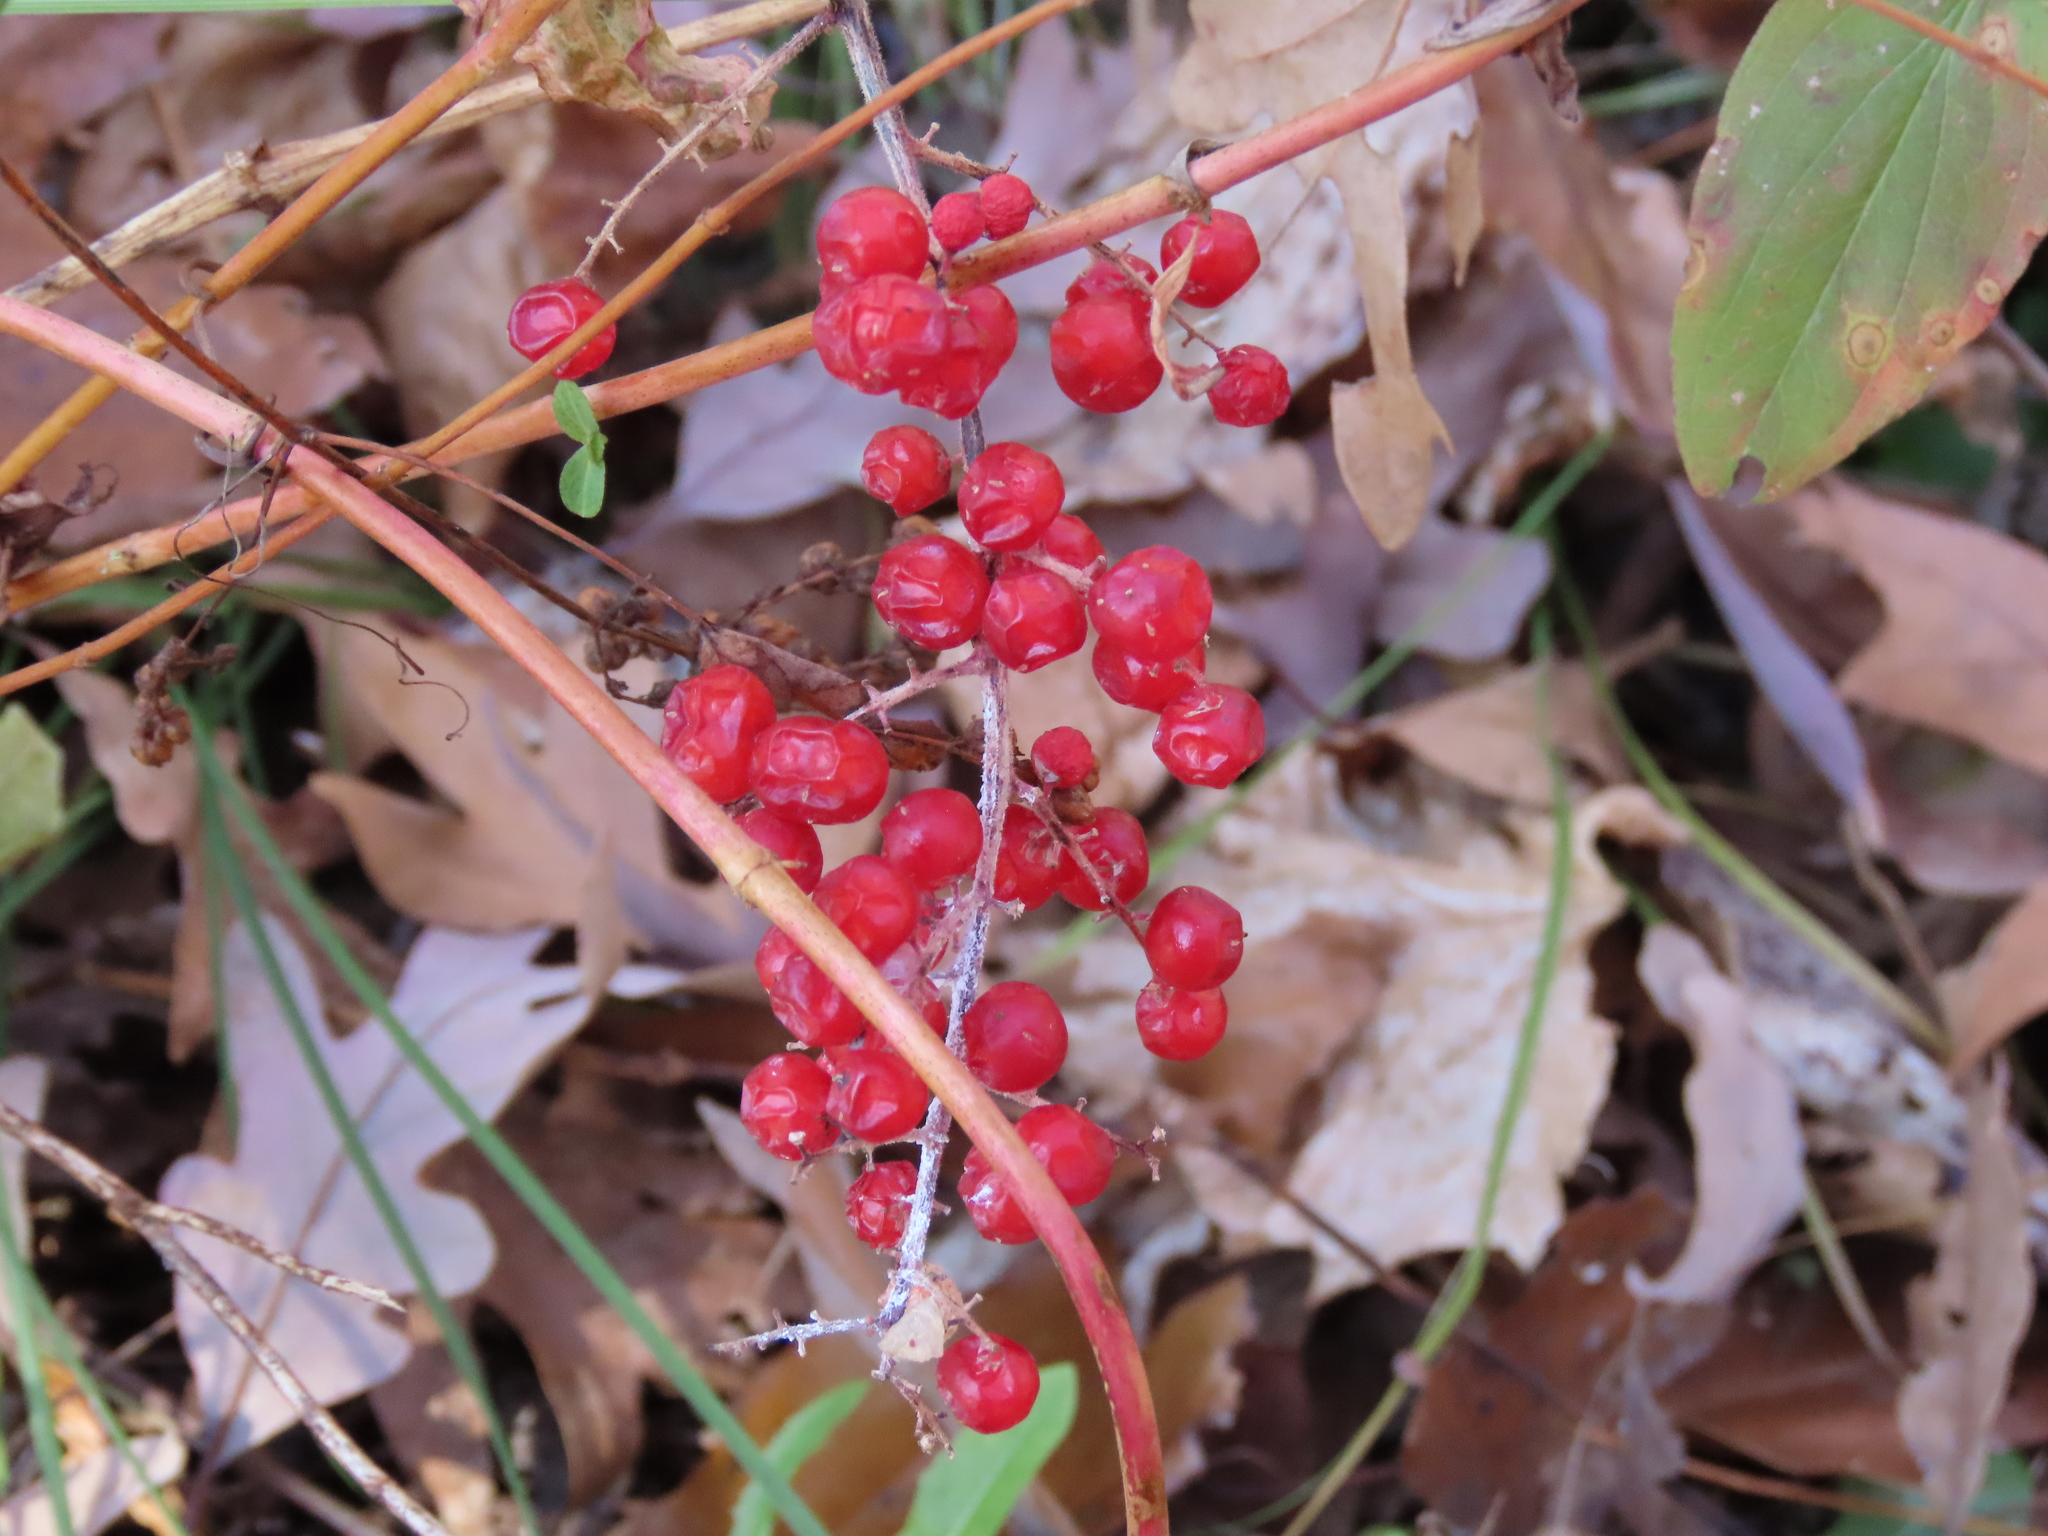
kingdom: Plantae
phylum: Tracheophyta
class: Liliopsida
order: Asparagales
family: Asparagaceae
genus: Maianthemum
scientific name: Maianthemum racemosum
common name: False spikenard
